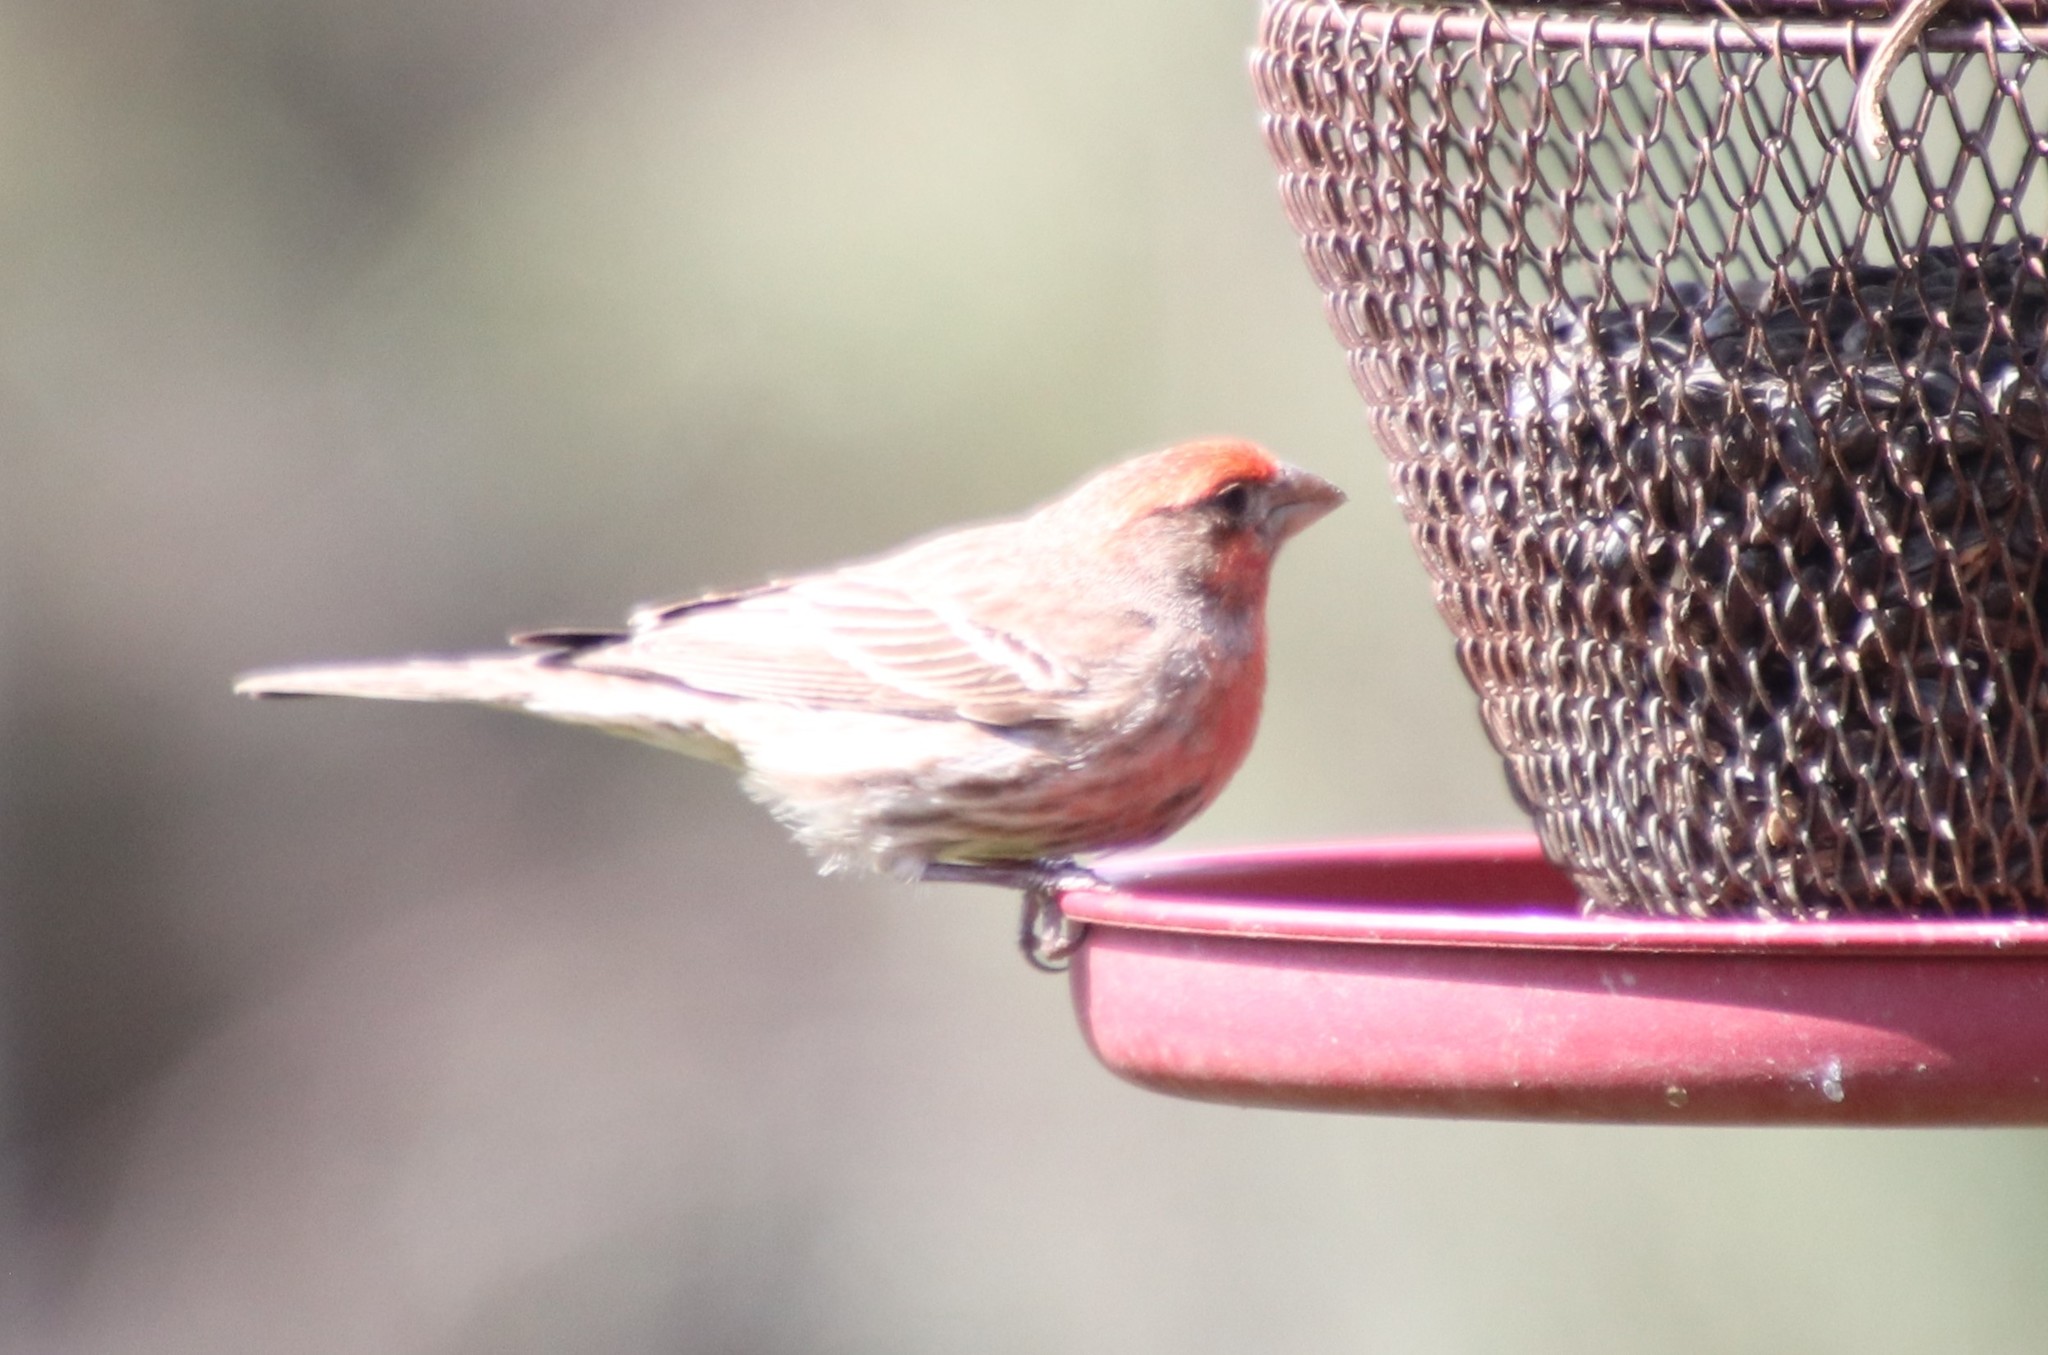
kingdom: Animalia
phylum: Chordata
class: Aves
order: Passeriformes
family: Fringillidae
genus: Haemorhous
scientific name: Haemorhous mexicanus
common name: House finch
